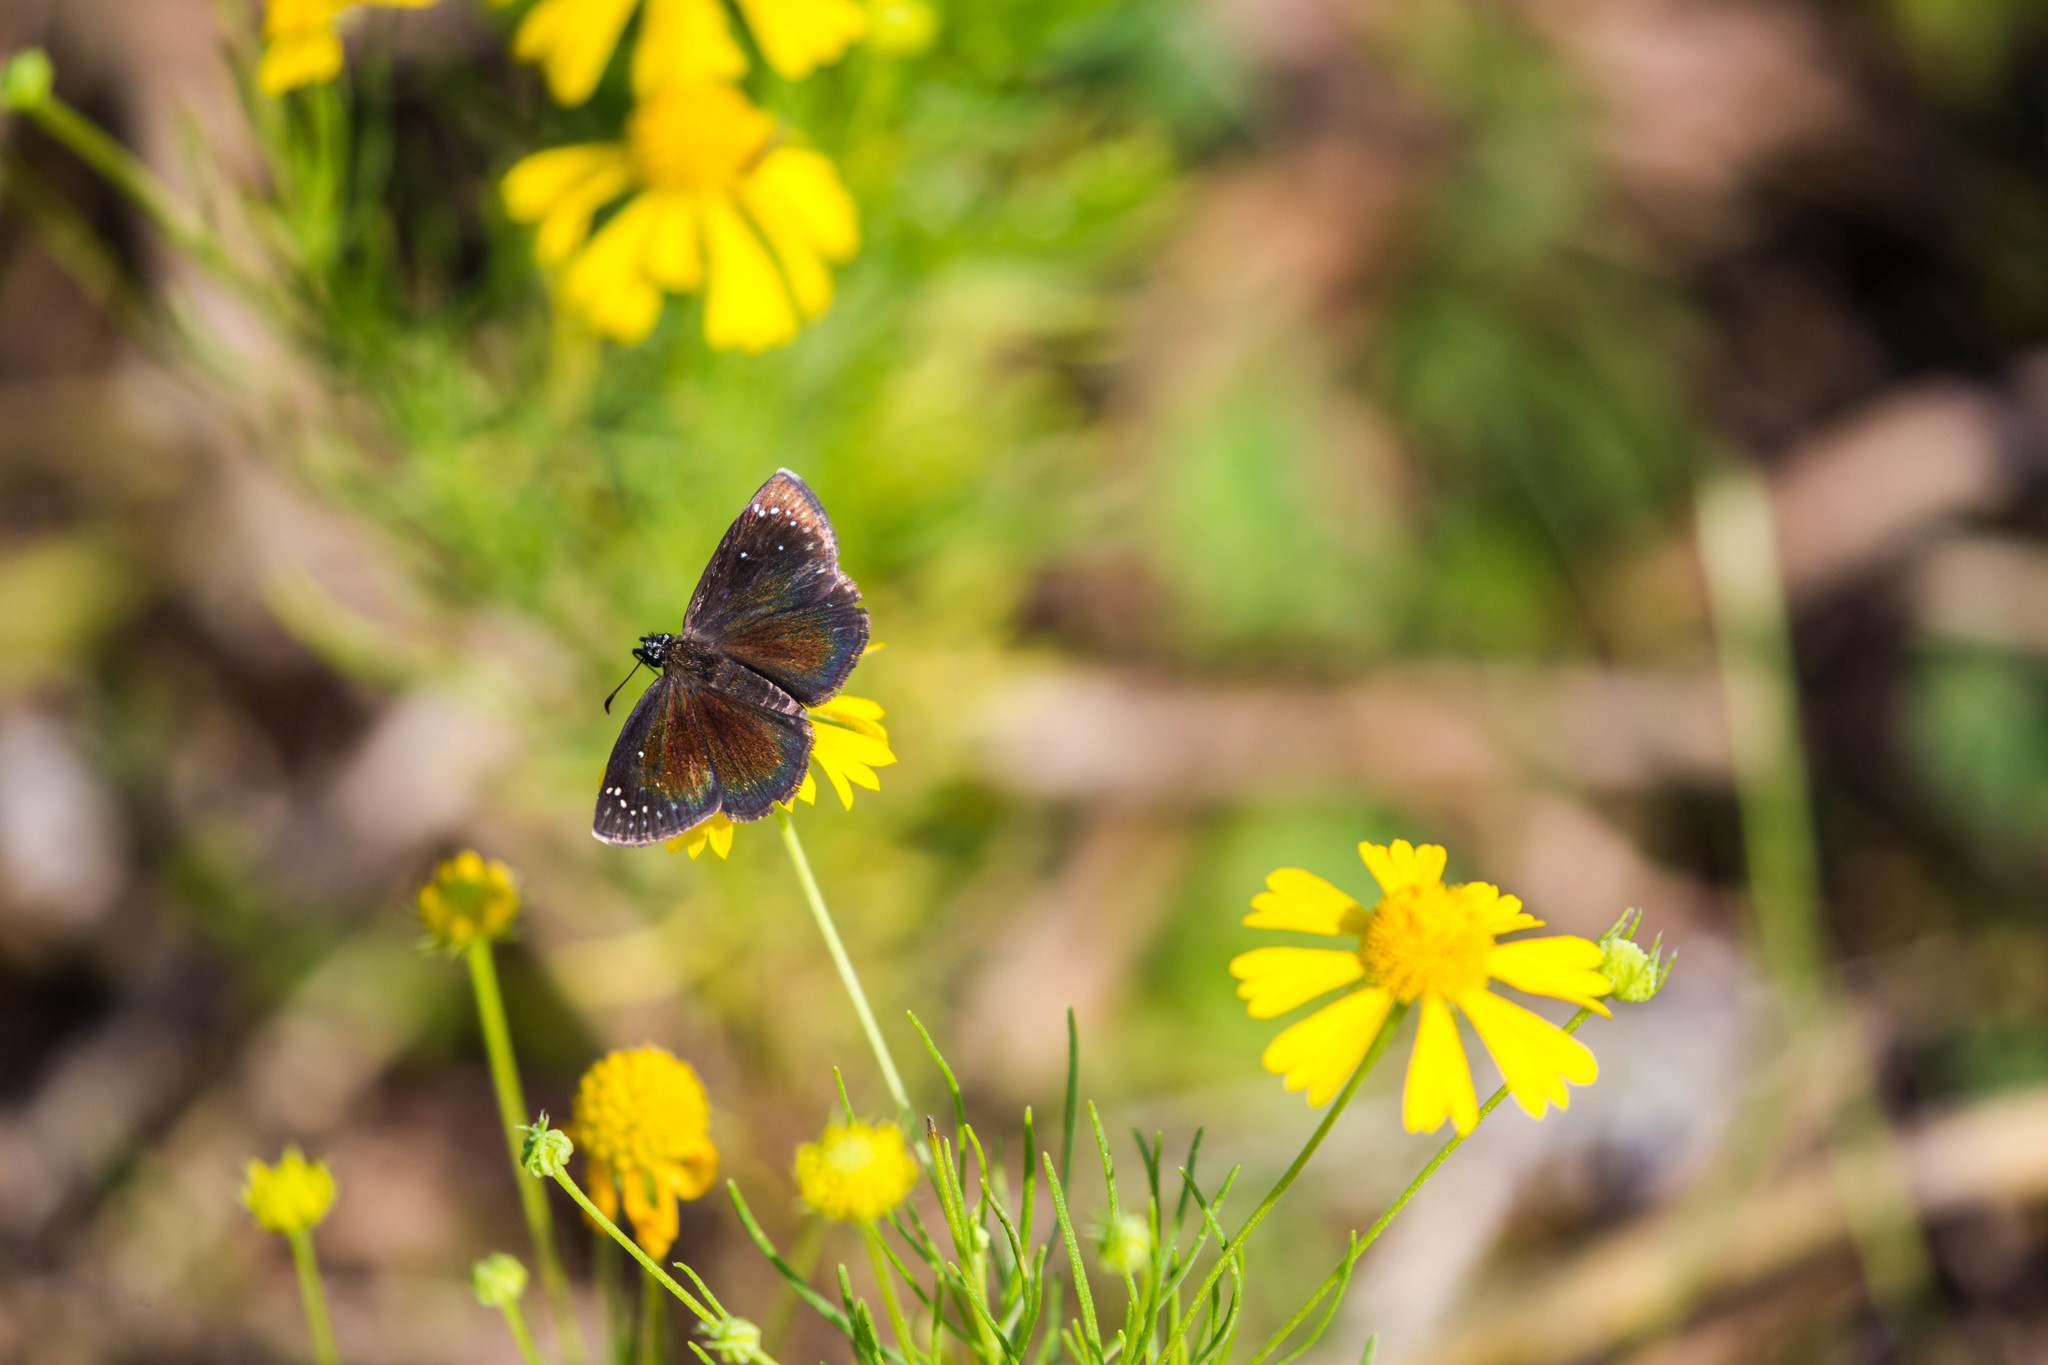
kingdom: Animalia
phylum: Arthropoda
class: Insecta
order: Lepidoptera
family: Hesperiidae
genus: Pholisora
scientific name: Pholisora catullus
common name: Common sootywing
